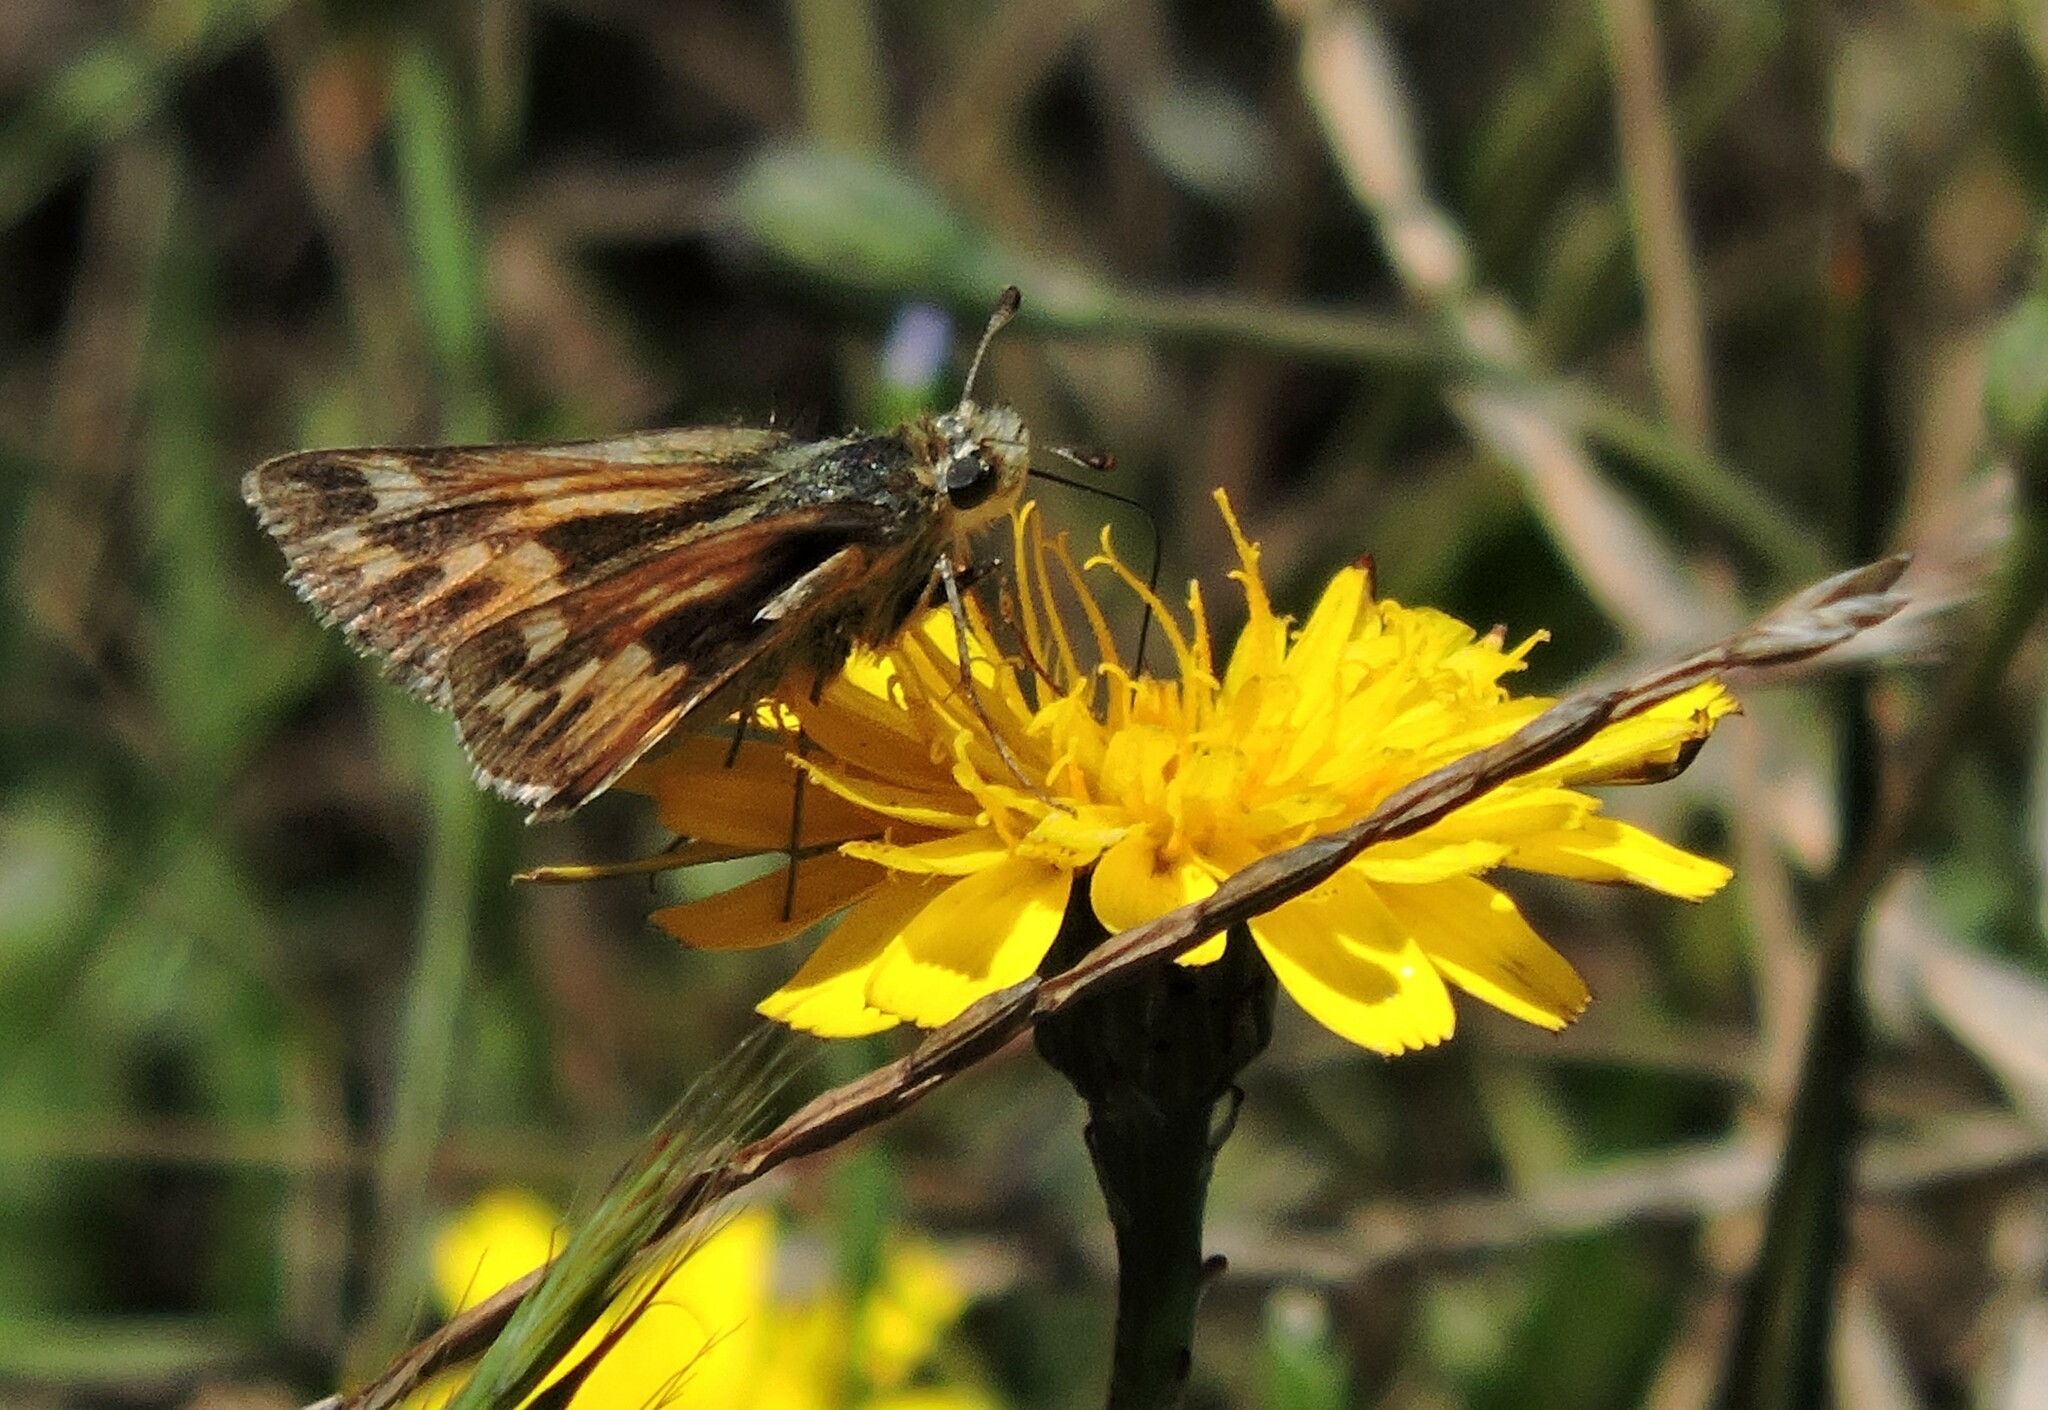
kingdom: Animalia
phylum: Arthropoda
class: Insecta
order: Lepidoptera
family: Hesperiidae
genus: Polites
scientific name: Polites sabuleti
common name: Sandhill skipper
